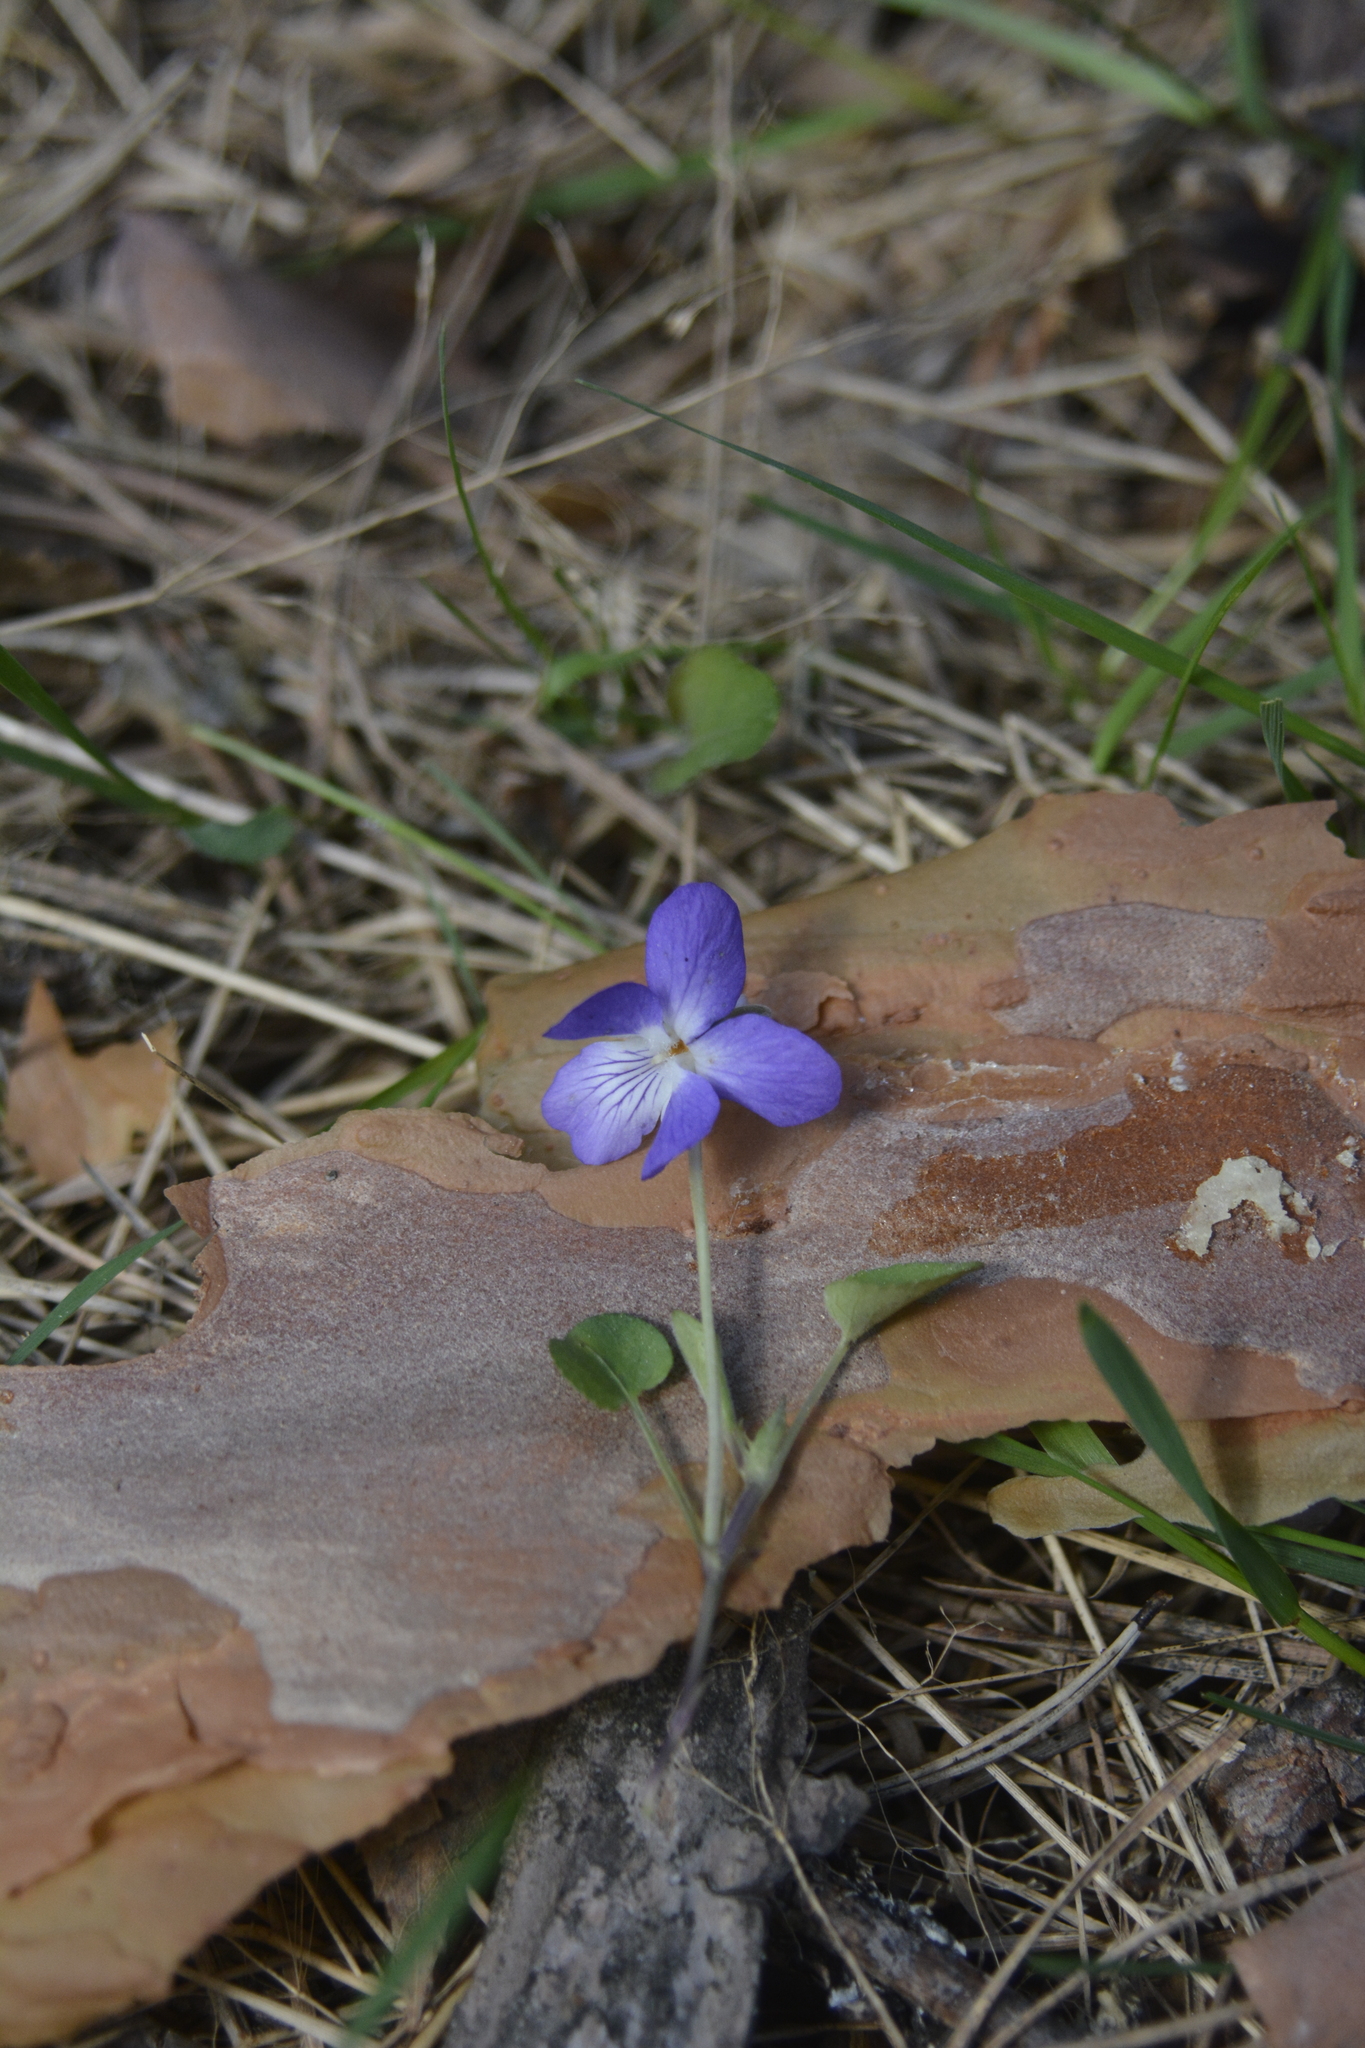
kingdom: Plantae
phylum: Tracheophyta
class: Magnoliopsida
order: Malpighiales
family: Violaceae
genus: Viola
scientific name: Viola rupestris
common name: Teesdale violet
